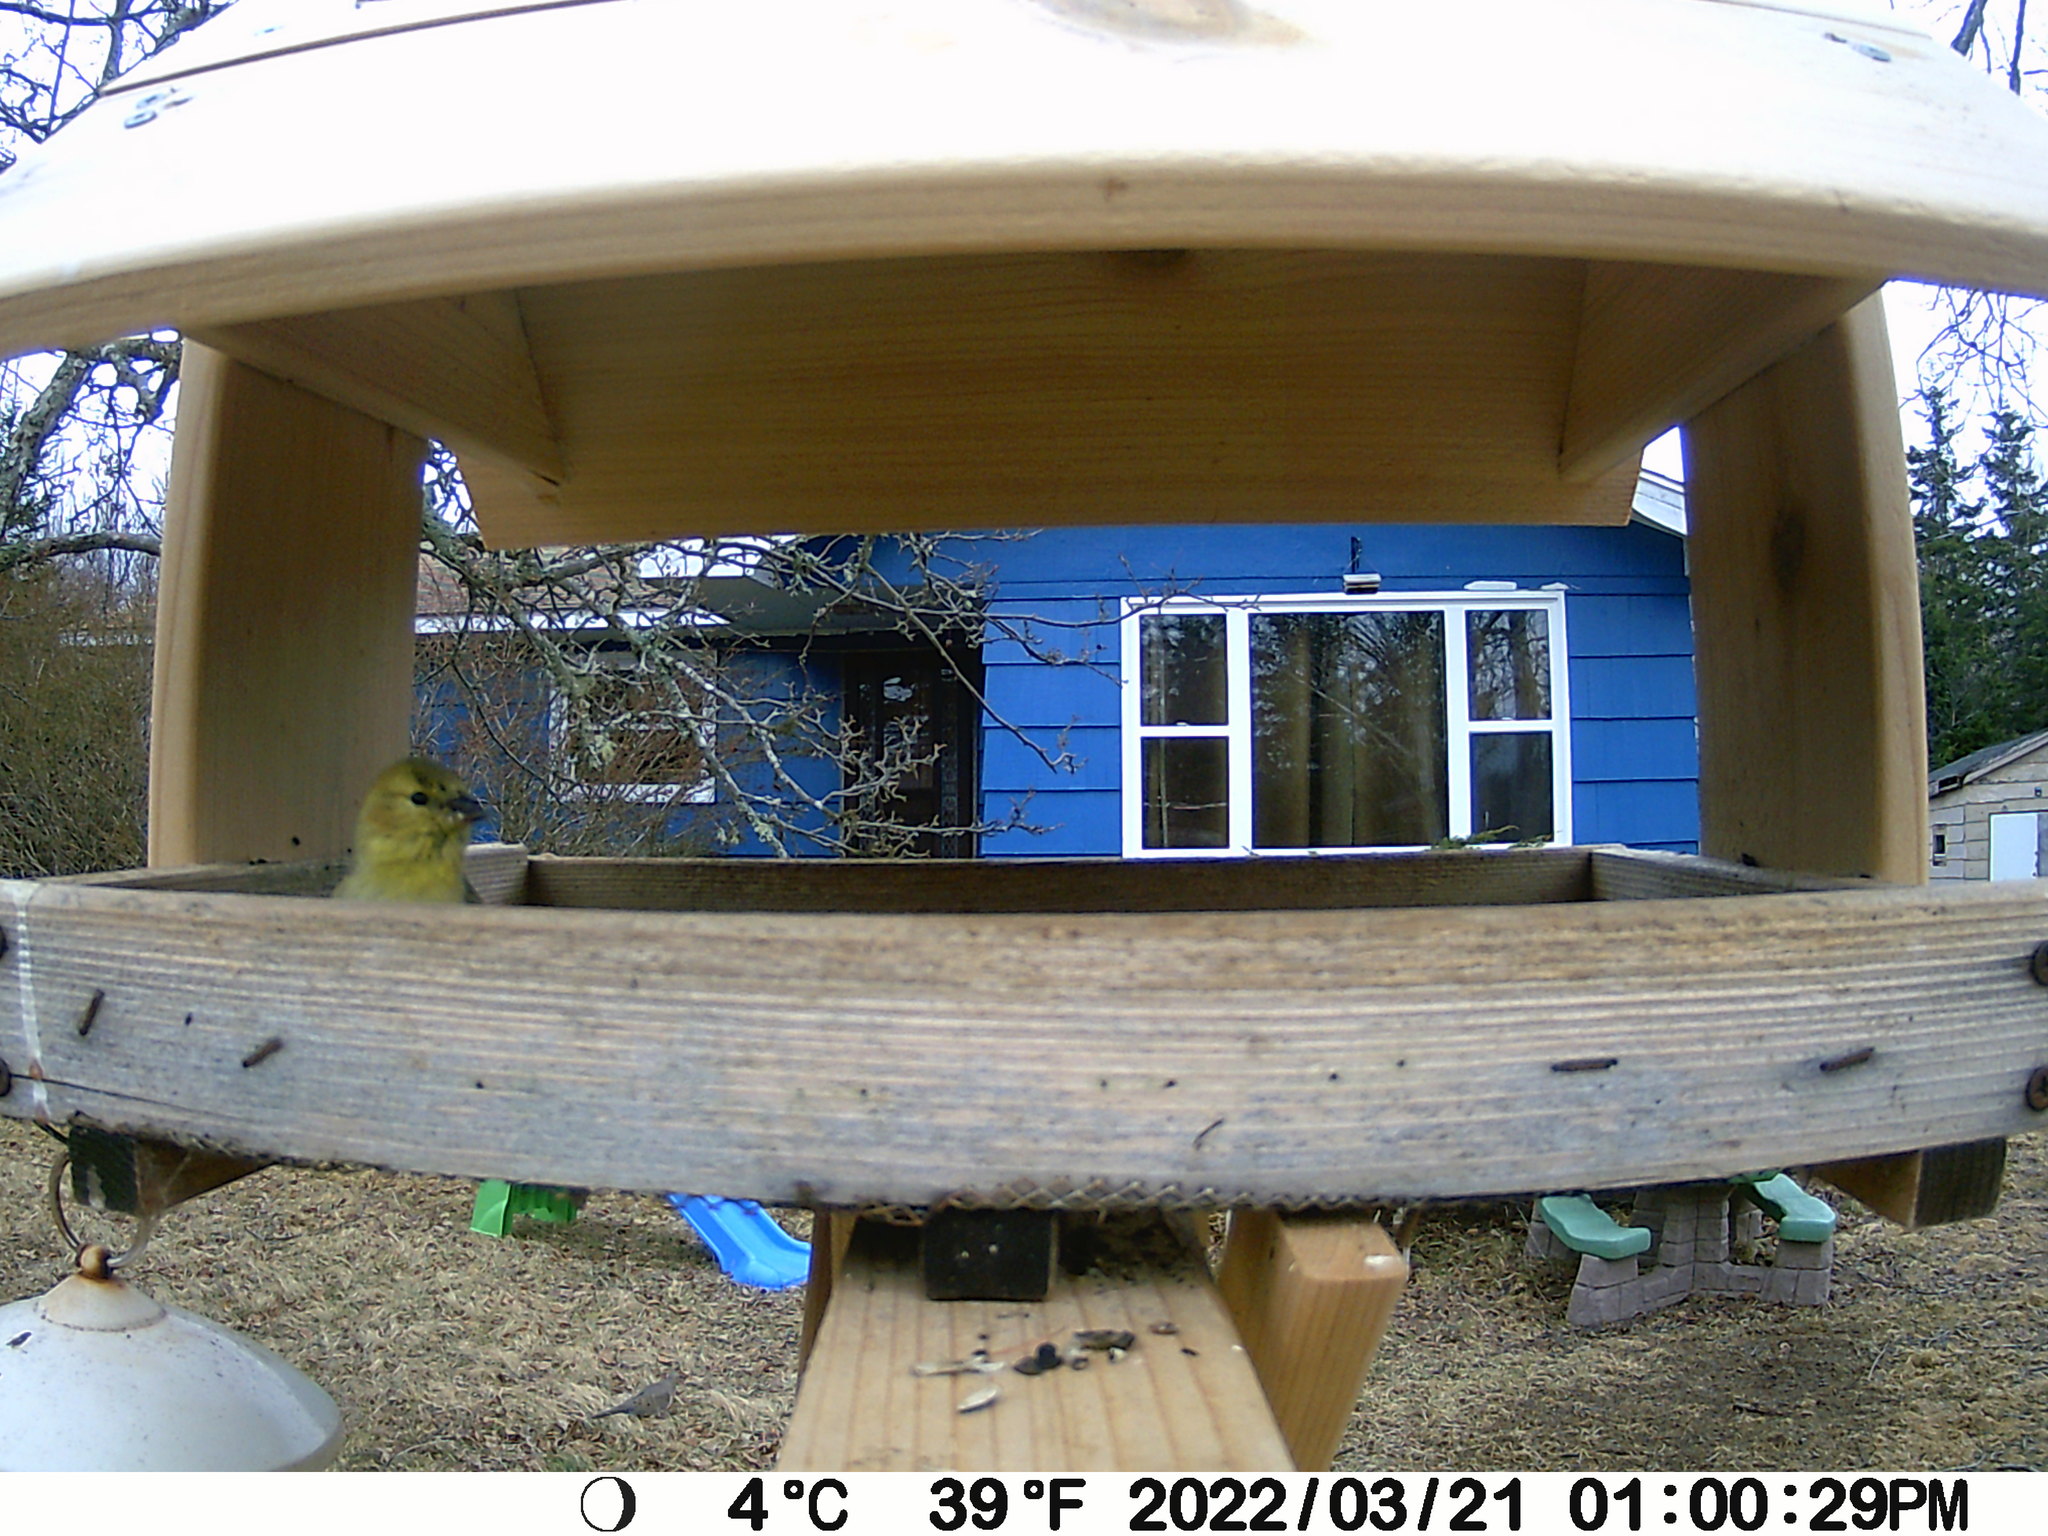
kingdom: Animalia
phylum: Chordata
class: Aves
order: Passeriformes
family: Fringillidae
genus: Spinus
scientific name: Spinus tristis
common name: American goldfinch
